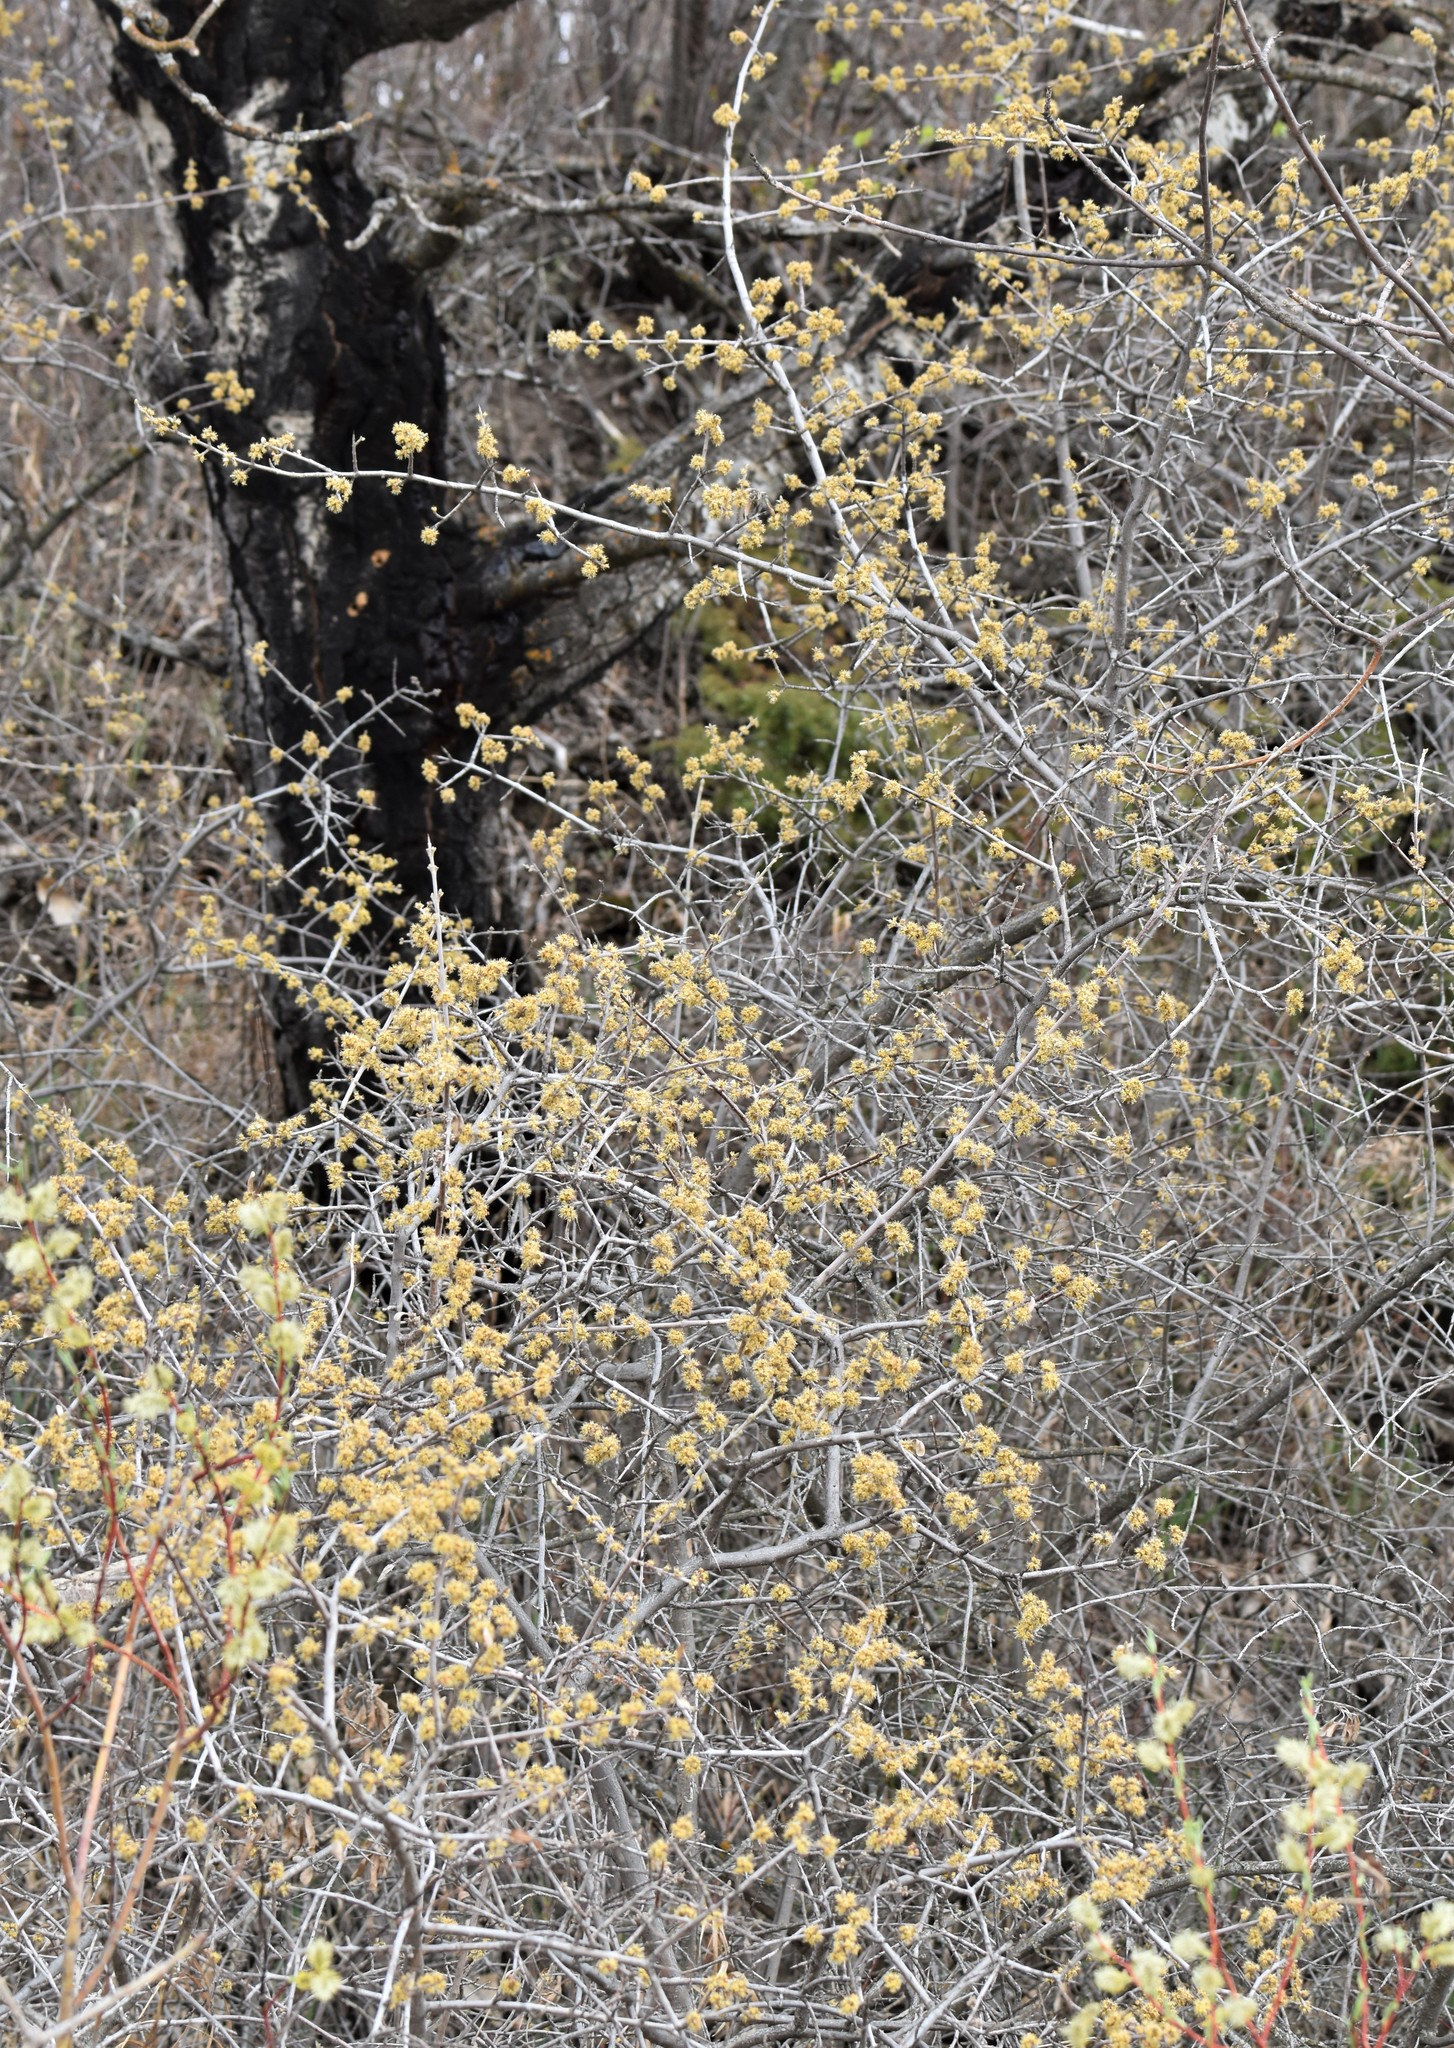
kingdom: Plantae
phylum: Tracheophyta
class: Magnoliopsida
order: Rosales
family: Elaeagnaceae
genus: Shepherdia
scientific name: Shepherdia argentea
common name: Silver buffaloberry
